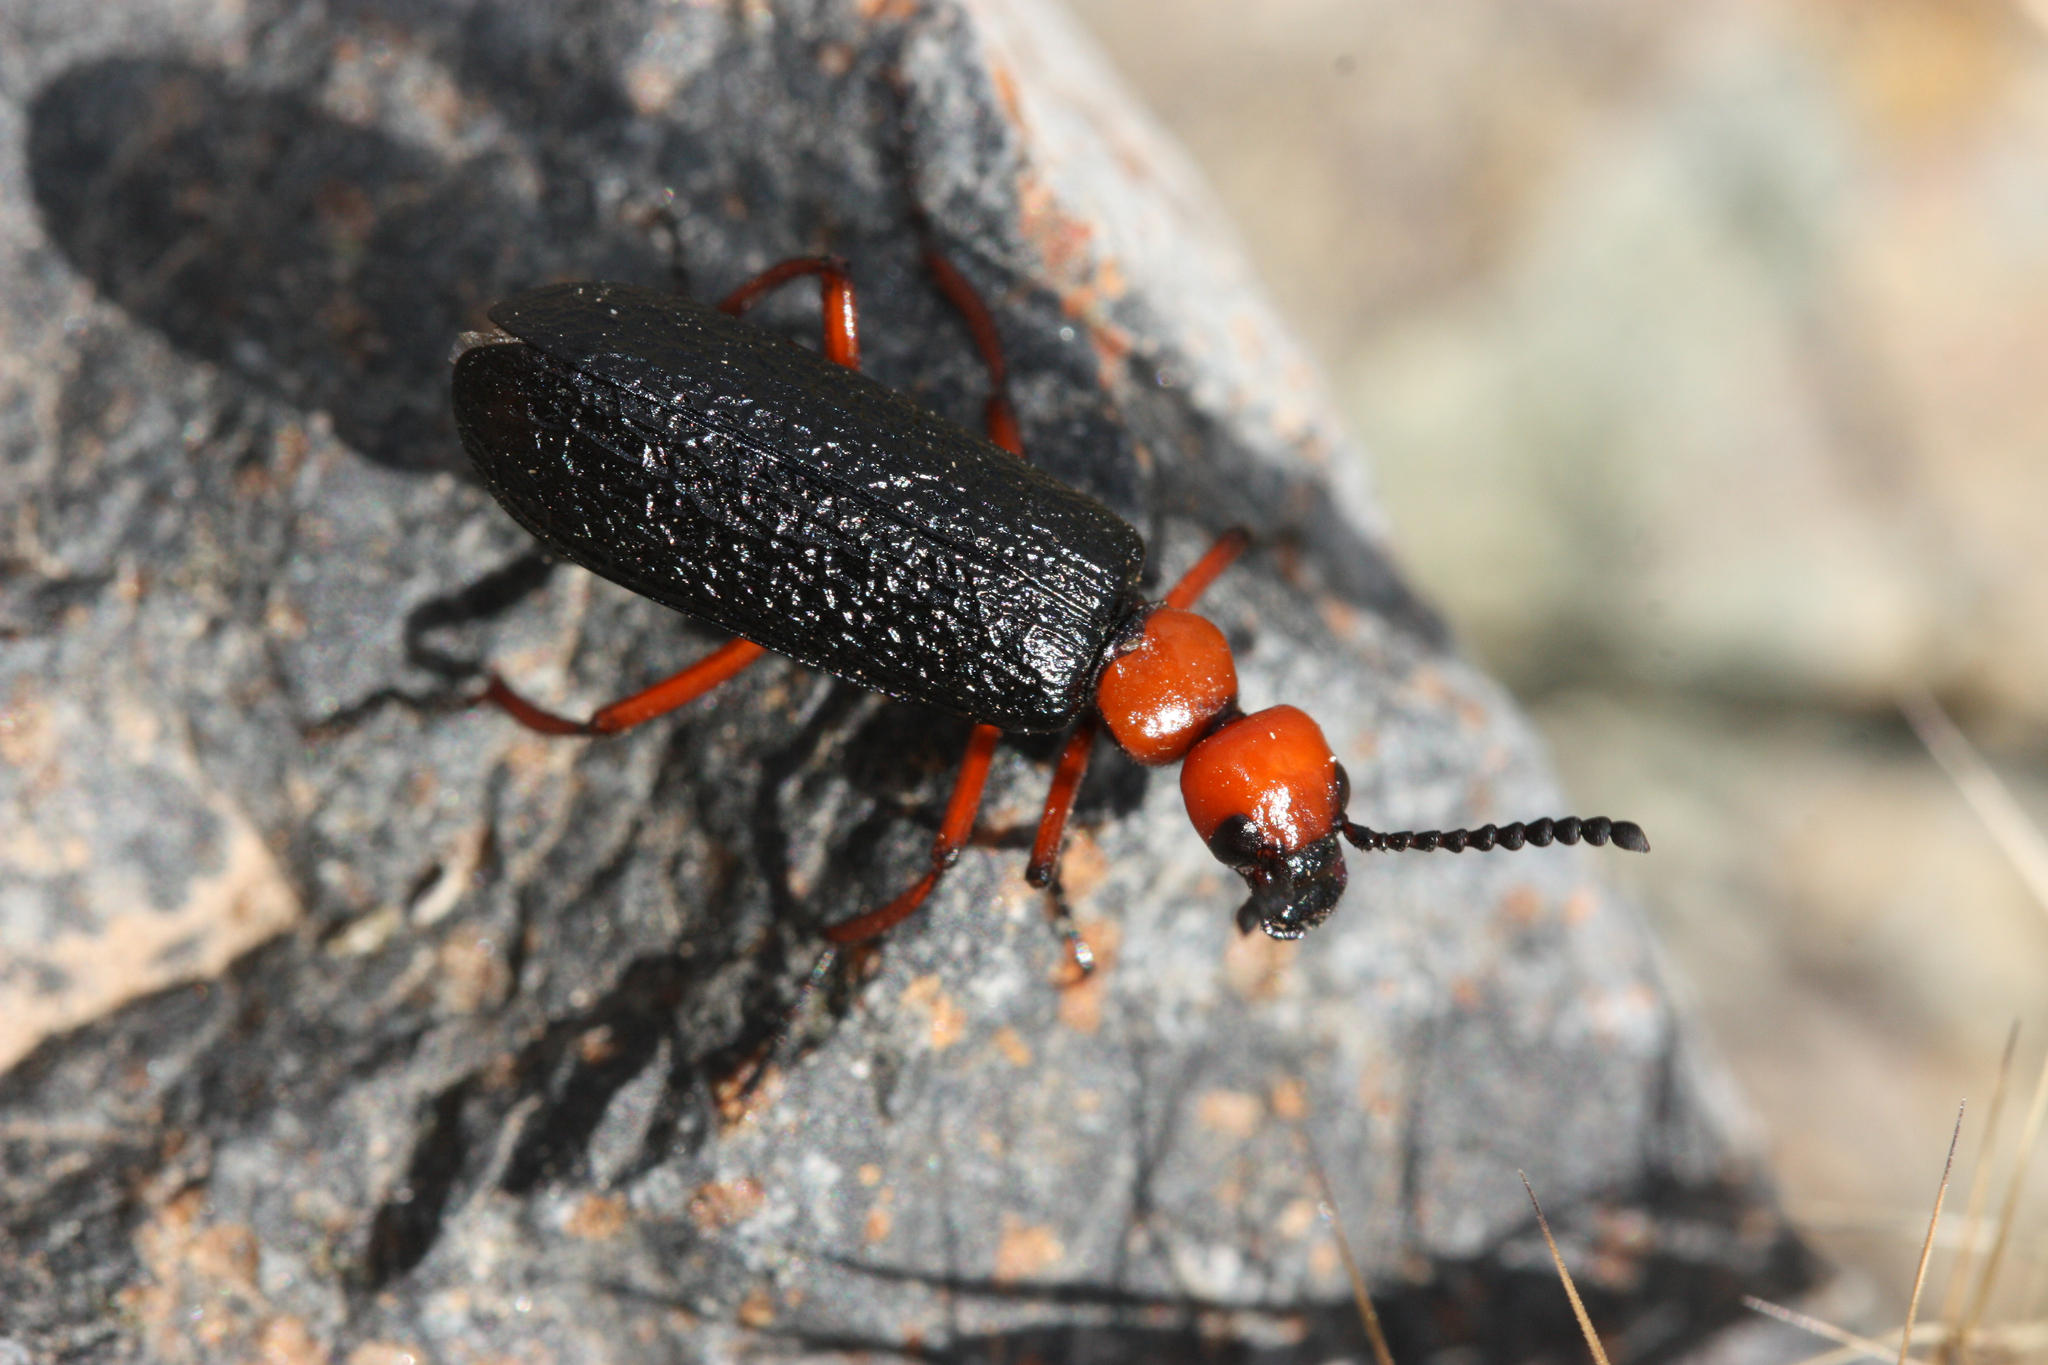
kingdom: Animalia
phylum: Arthropoda
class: Insecta
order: Coleoptera
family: Meloidae
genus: Lytta
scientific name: Lytta magister
